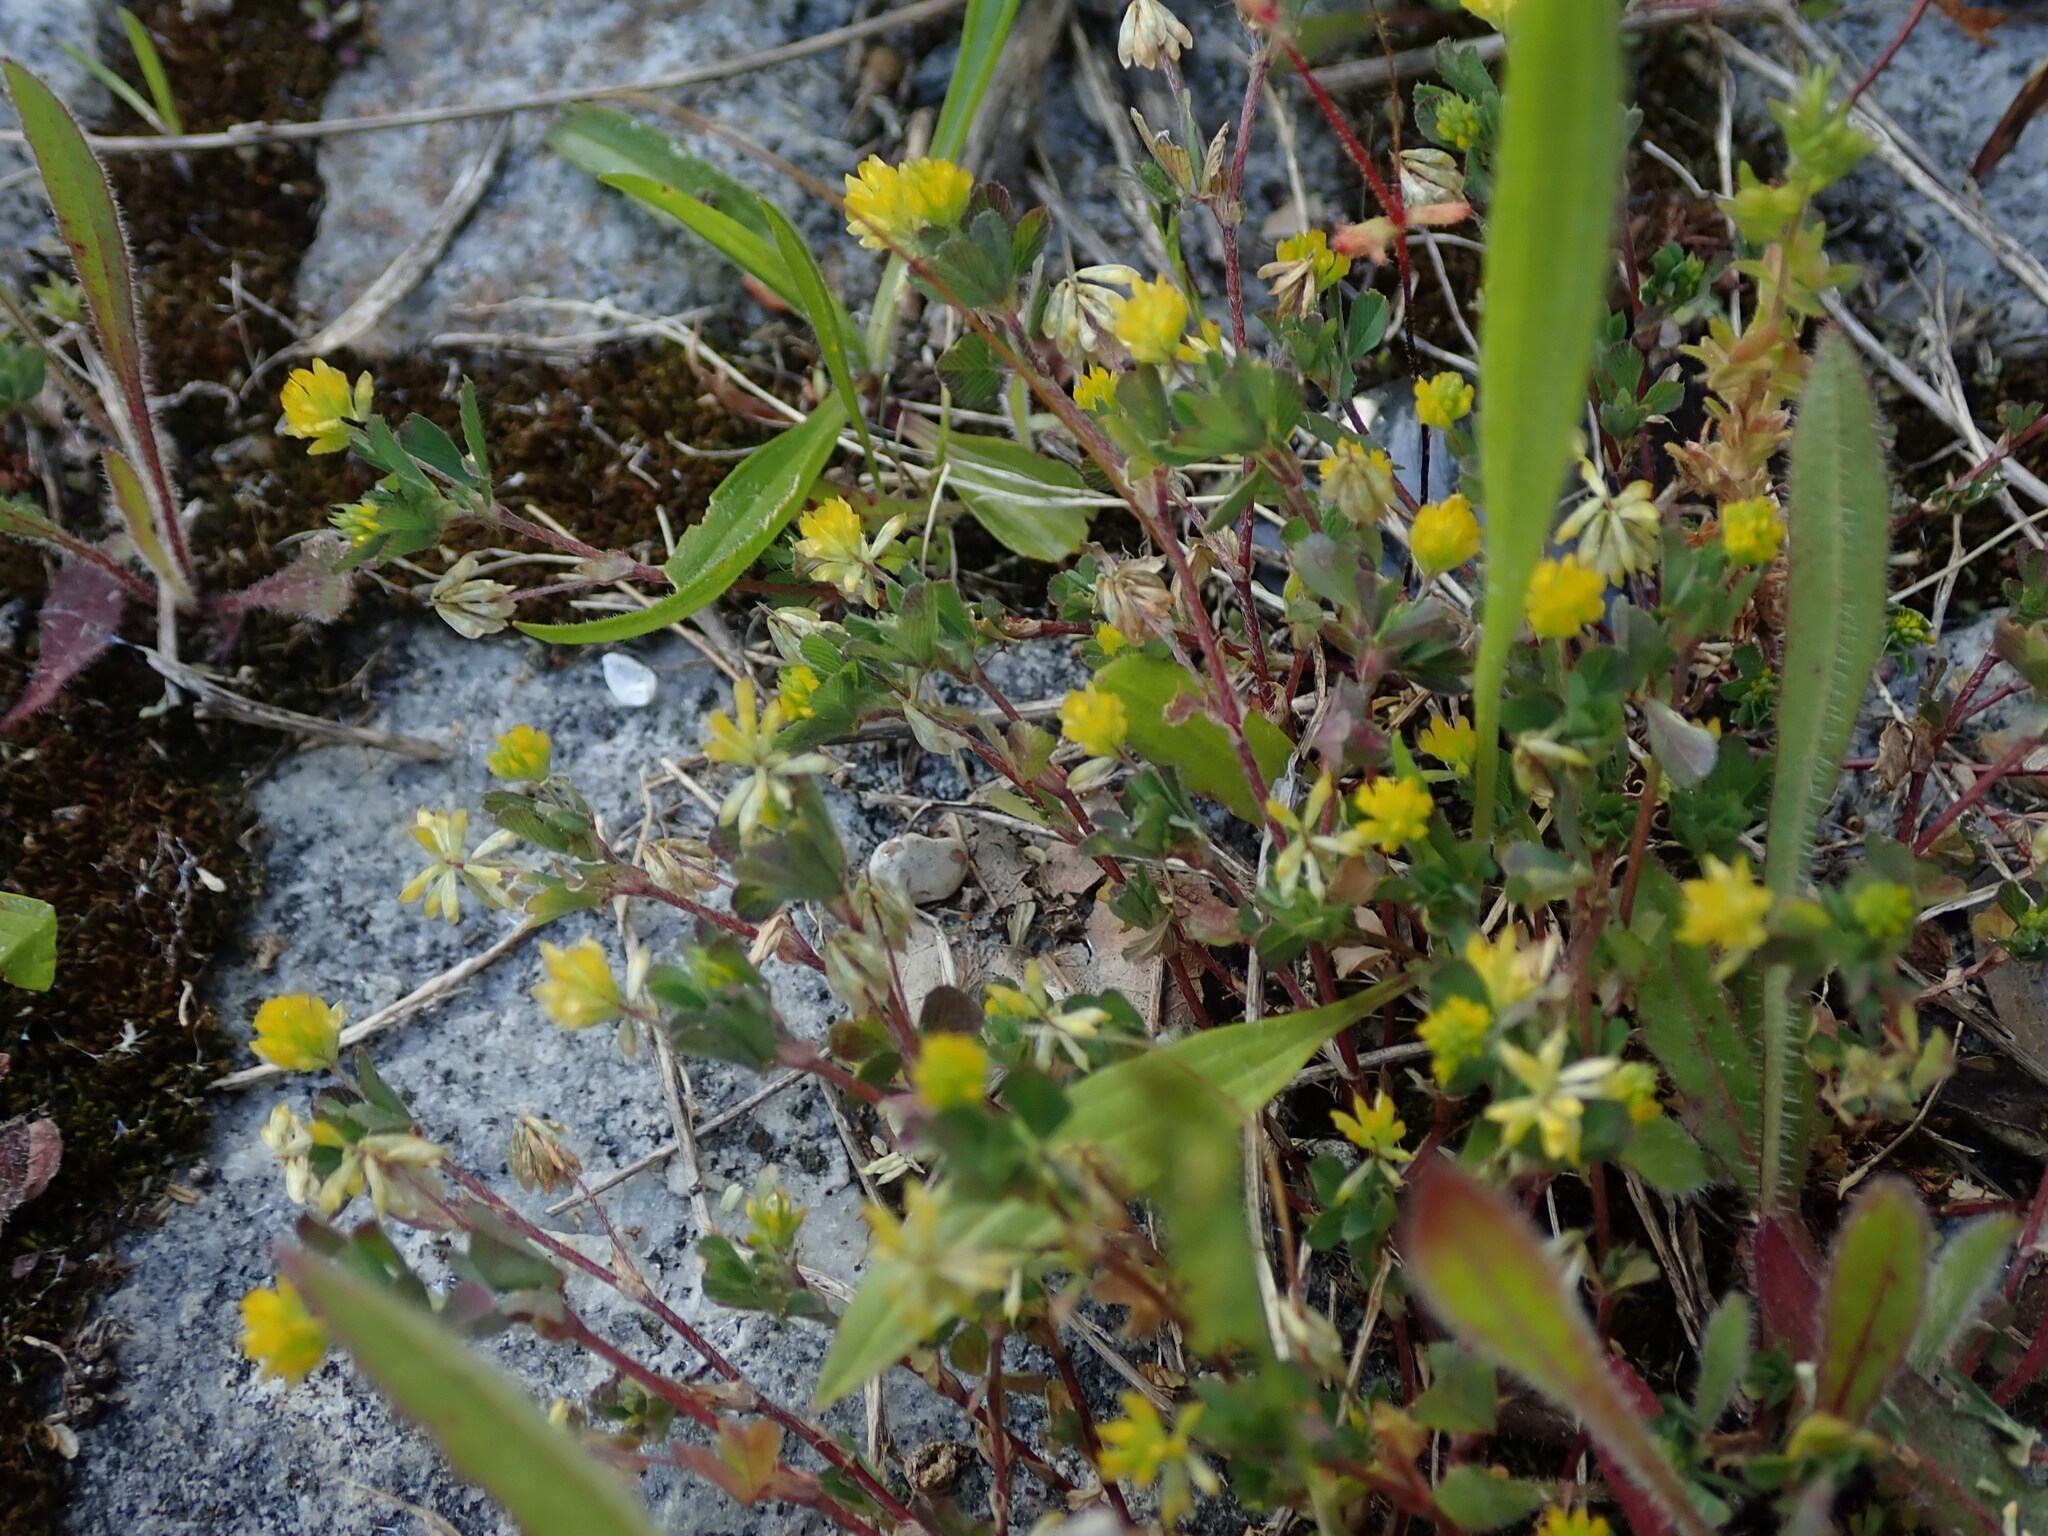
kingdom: Plantae
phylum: Tracheophyta
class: Magnoliopsida
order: Fabales
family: Fabaceae
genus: Trifolium
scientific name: Trifolium dubium
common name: Suckling clover
